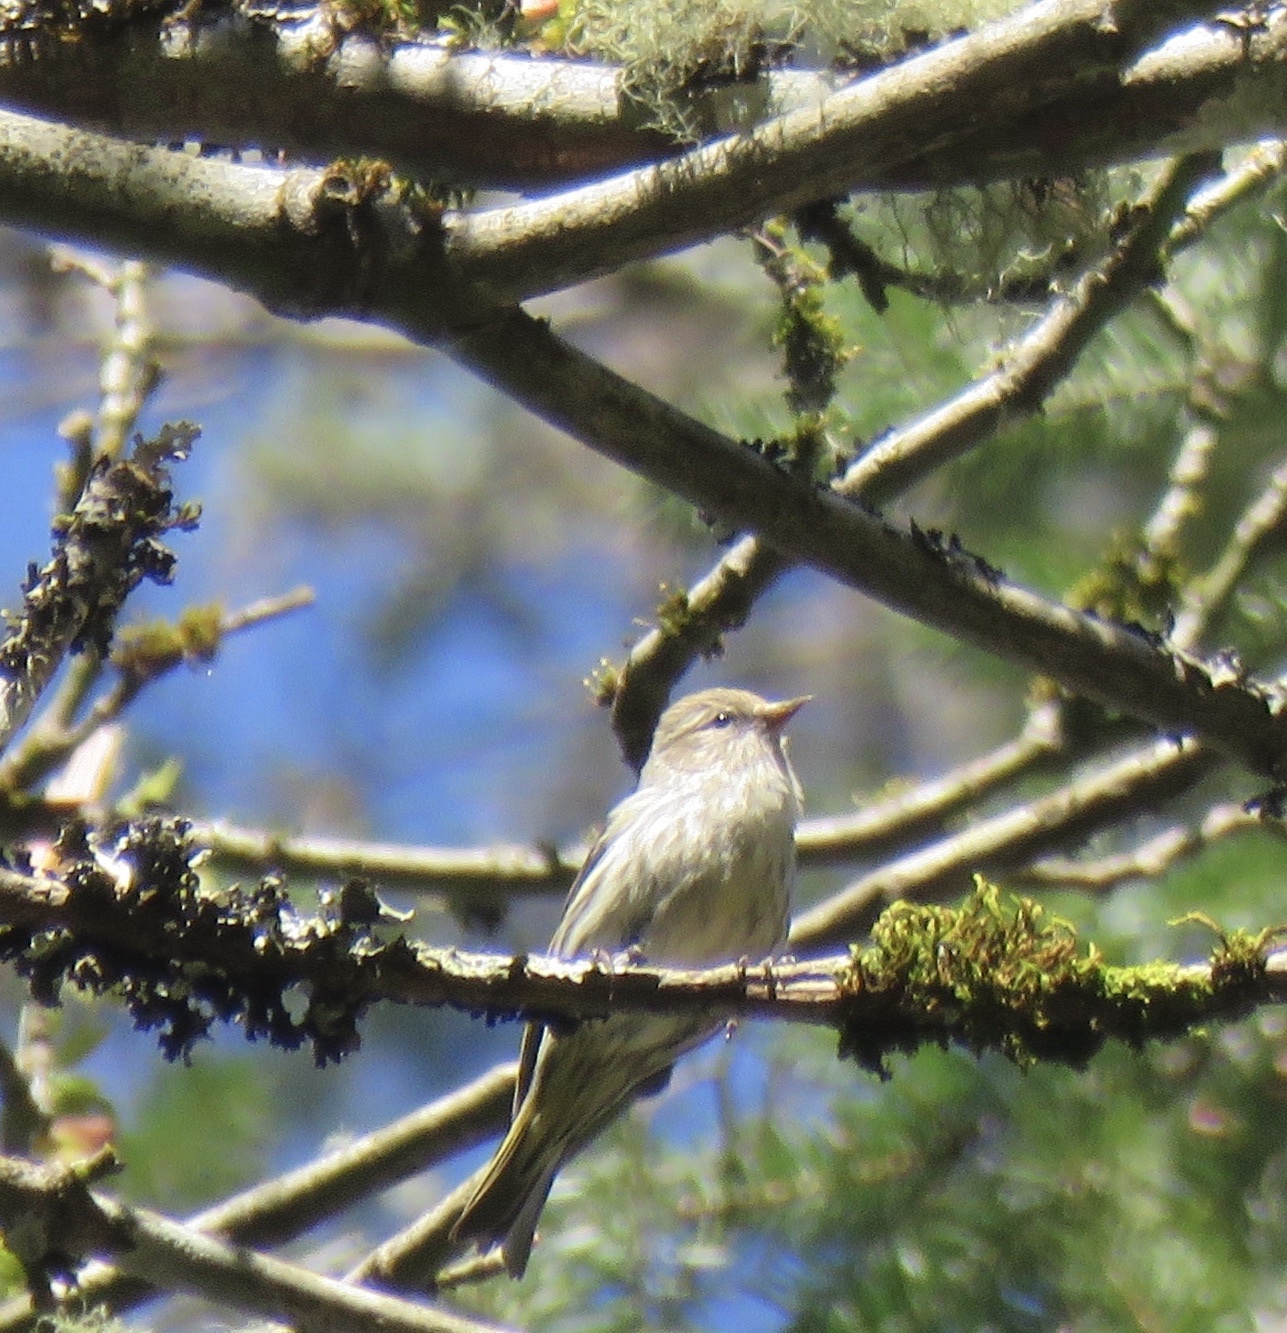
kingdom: Animalia
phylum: Chordata
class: Aves
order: Passeriformes
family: Fringillidae
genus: Spinus
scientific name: Spinus pinus
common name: Pine siskin
